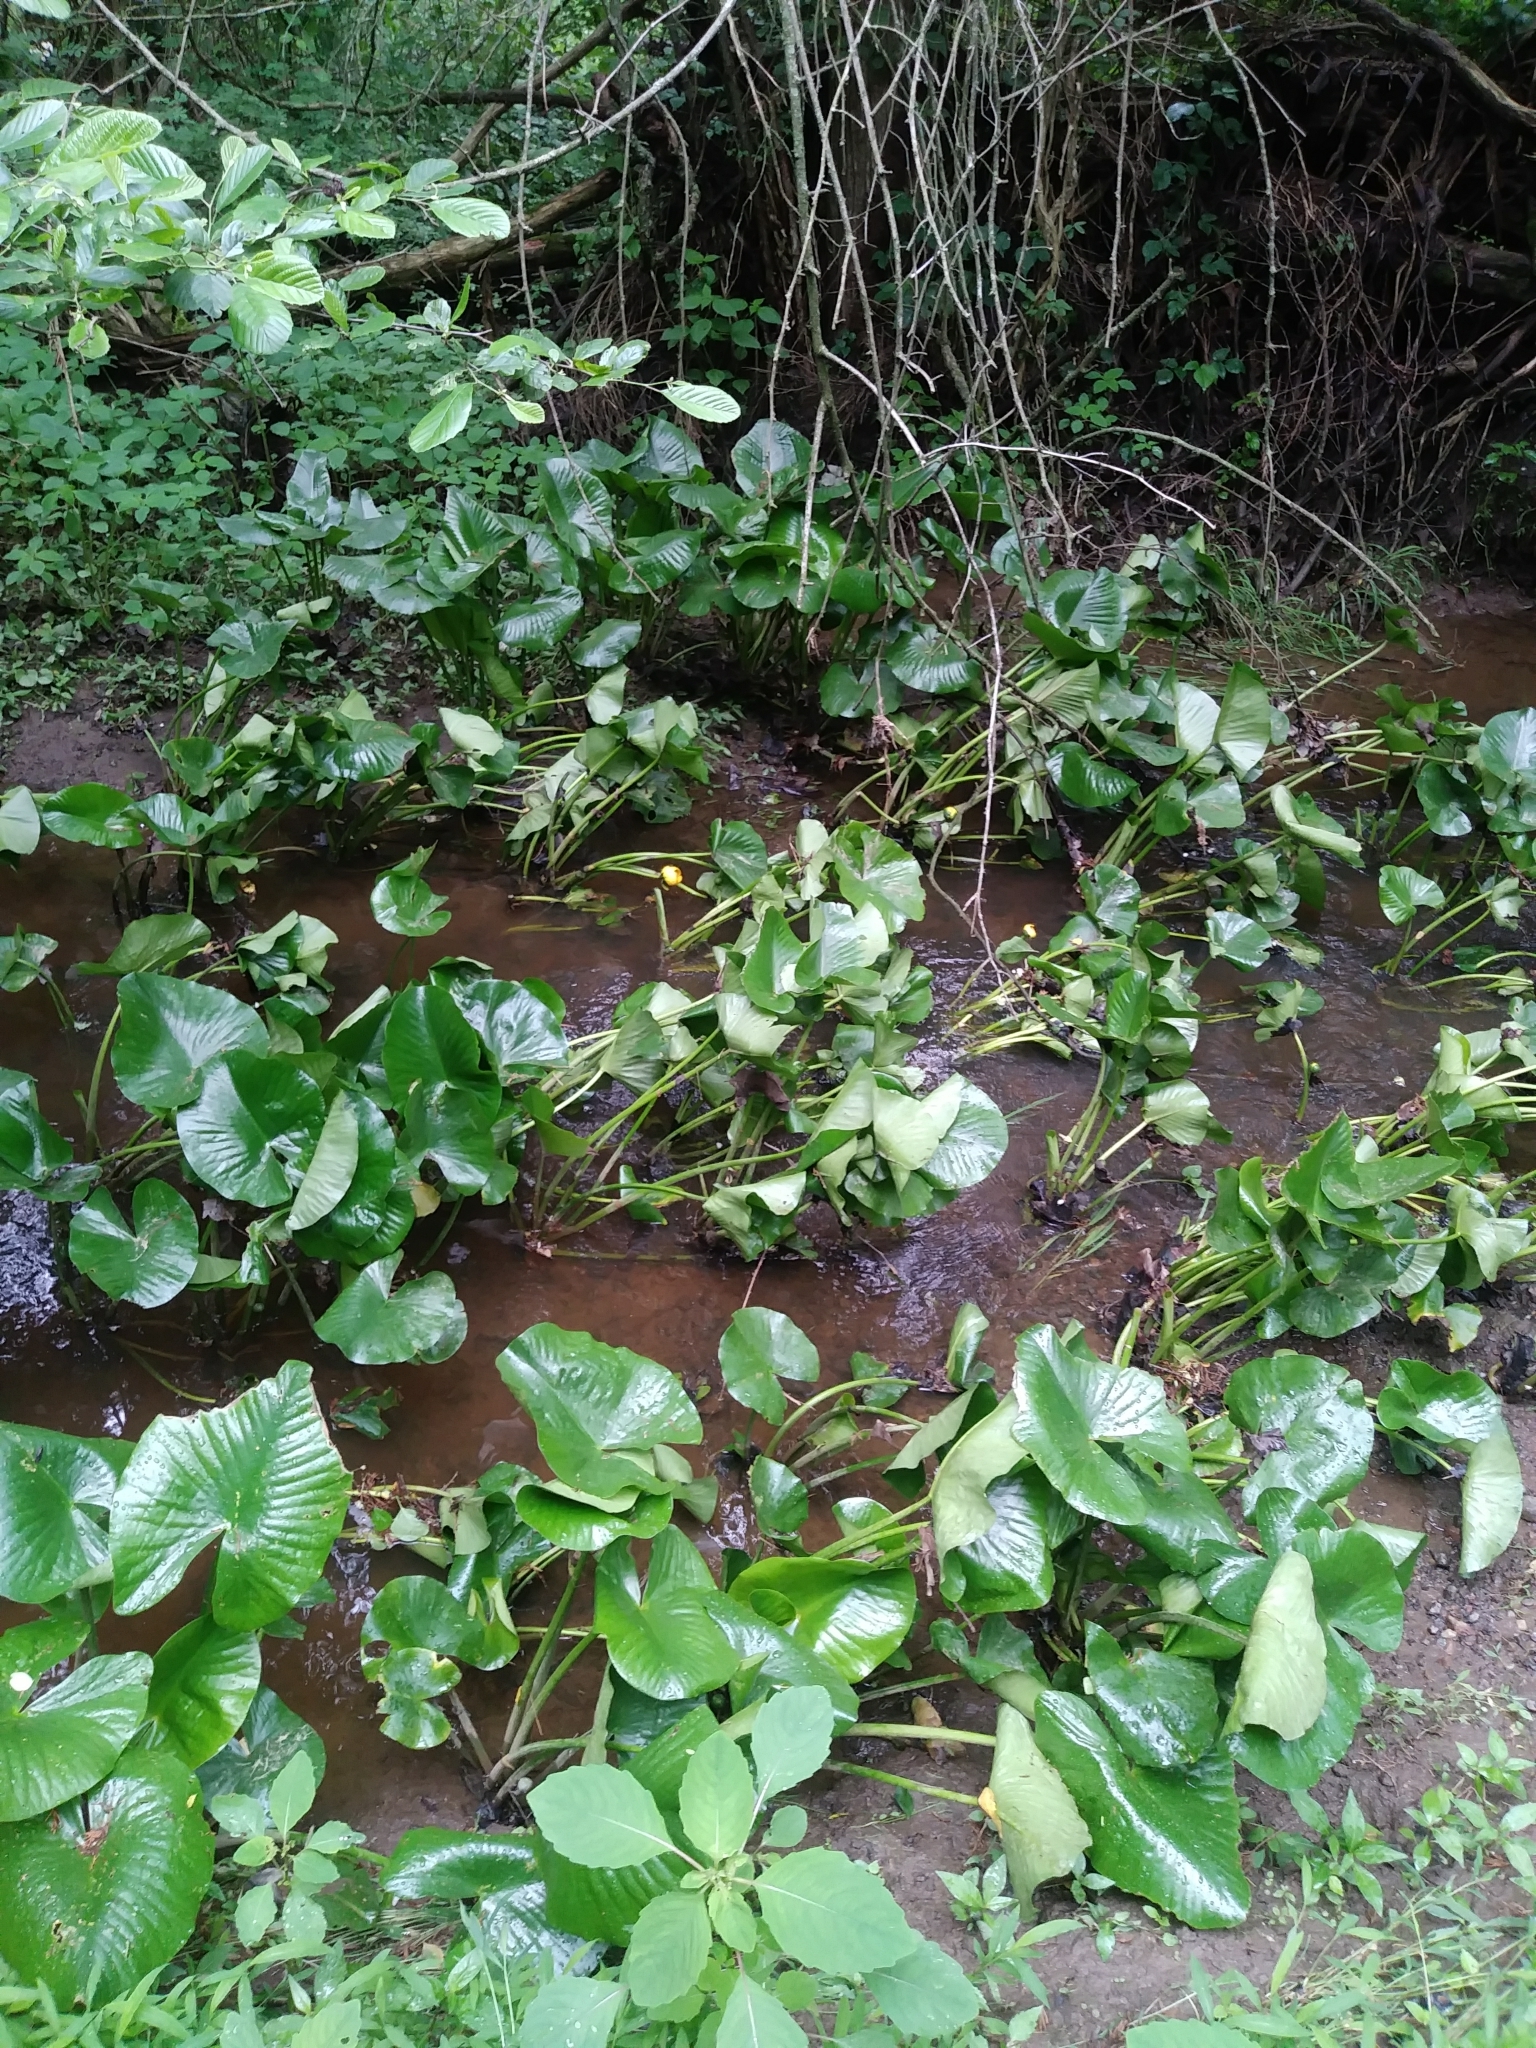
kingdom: Plantae
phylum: Tracheophyta
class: Magnoliopsida
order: Nymphaeales
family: Nymphaeaceae
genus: Nuphar
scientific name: Nuphar advena
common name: Spatter-dock
